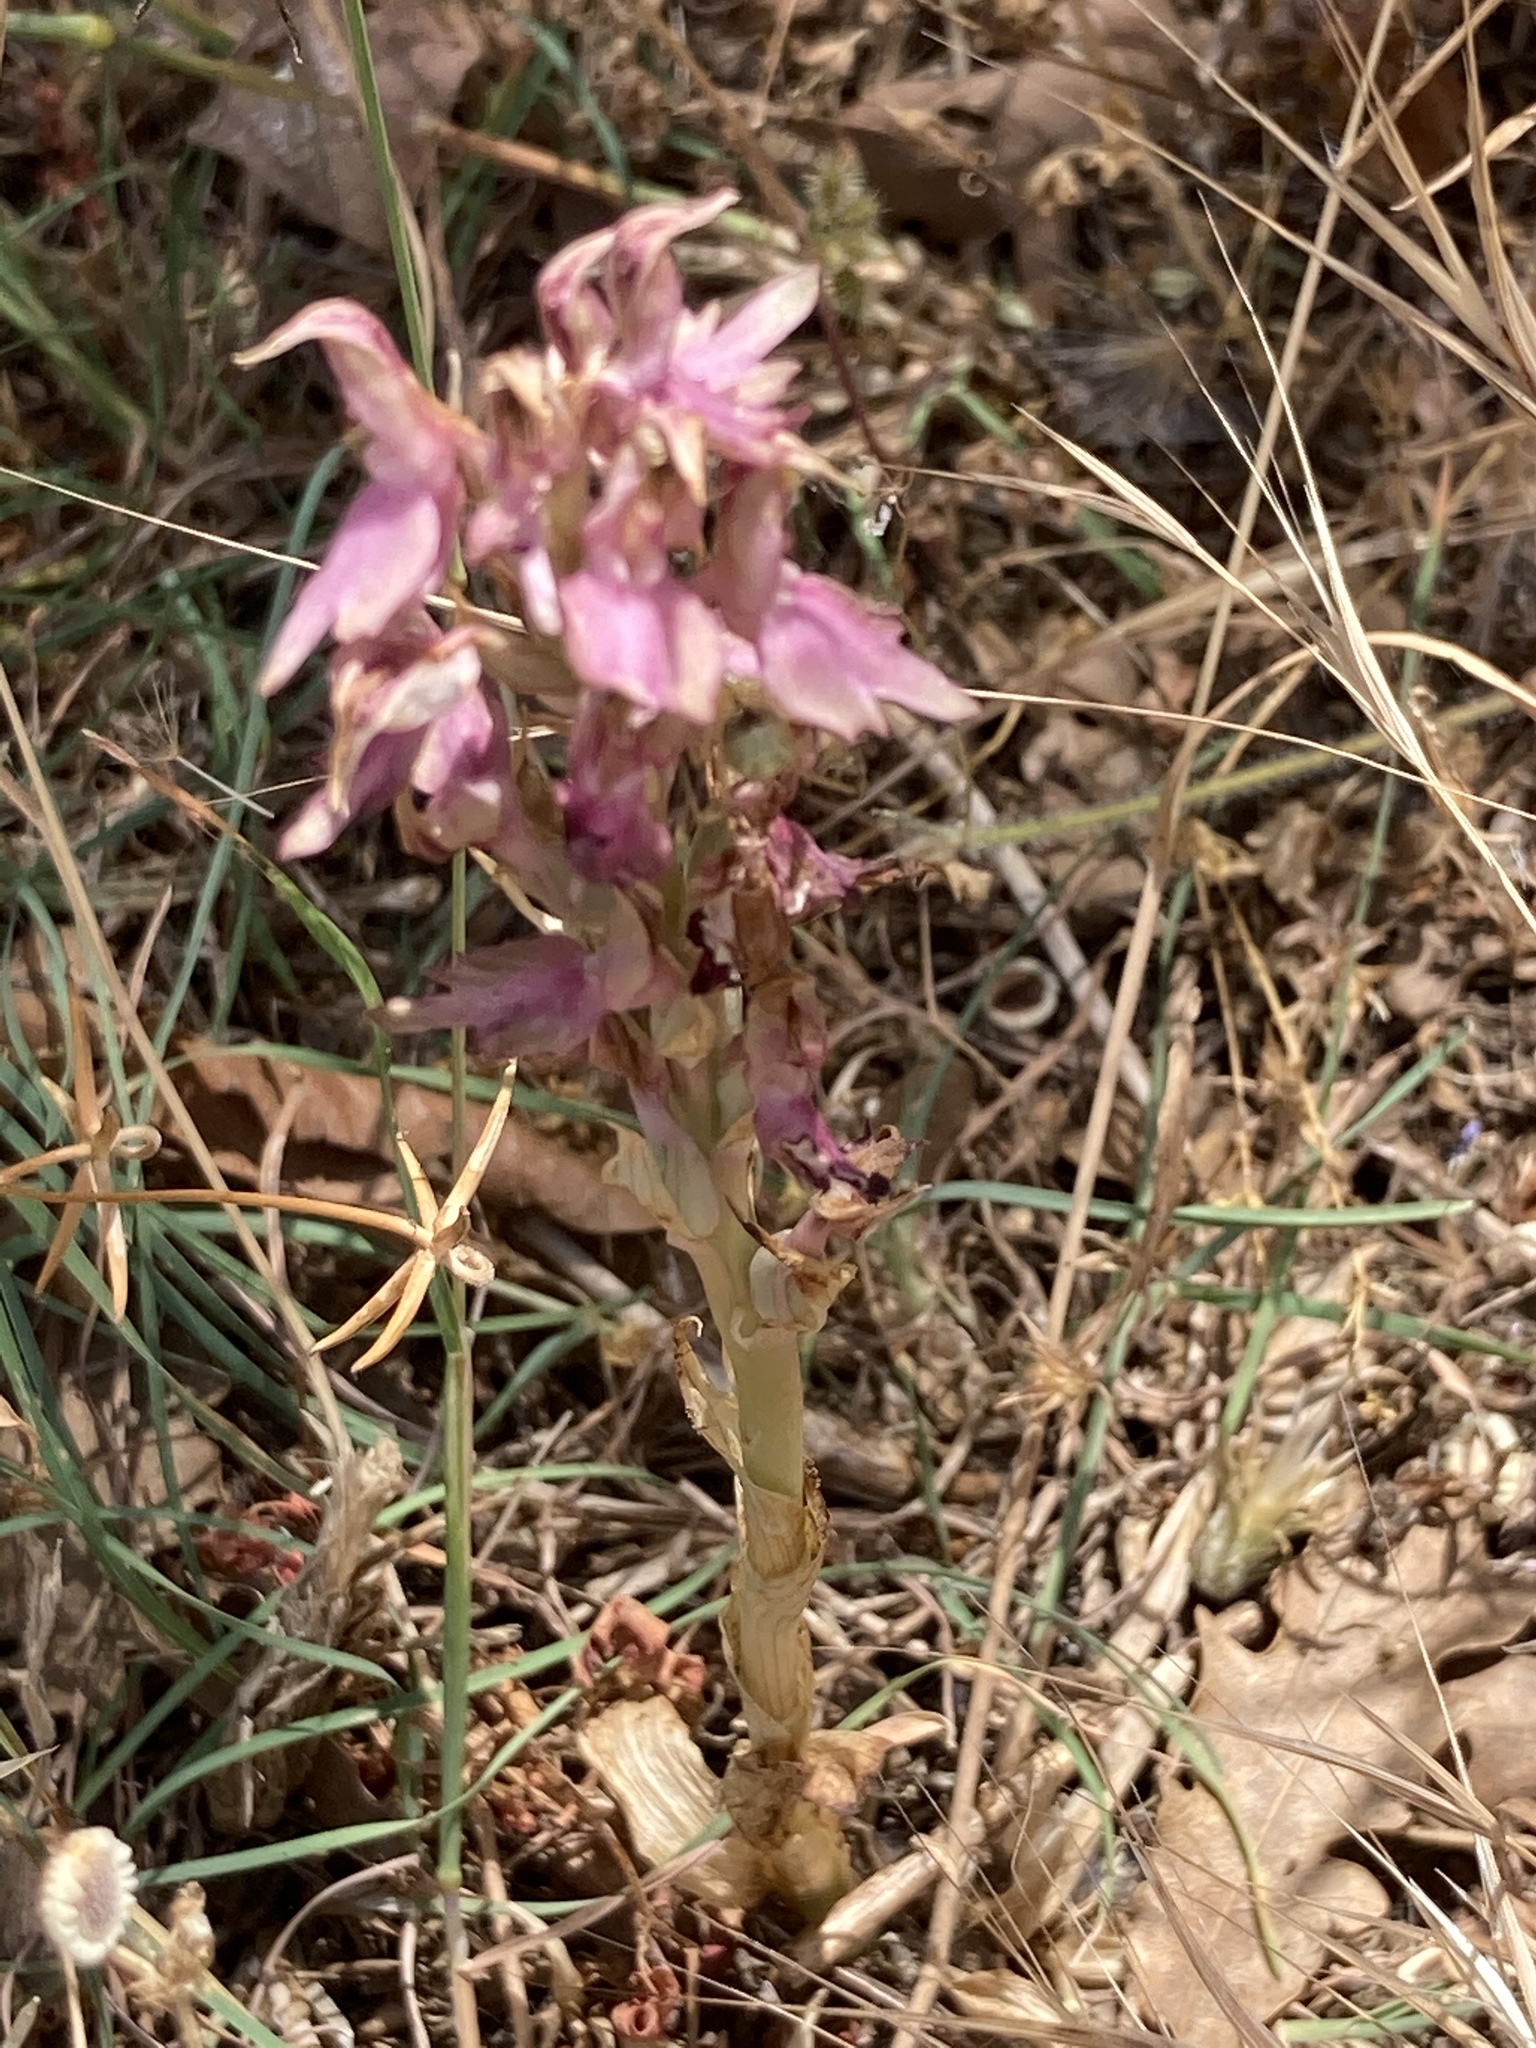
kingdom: Plantae
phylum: Tracheophyta
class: Liliopsida
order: Asparagales
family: Orchidaceae
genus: Anacamptis
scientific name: Anacamptis sancta
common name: Holy orchid
